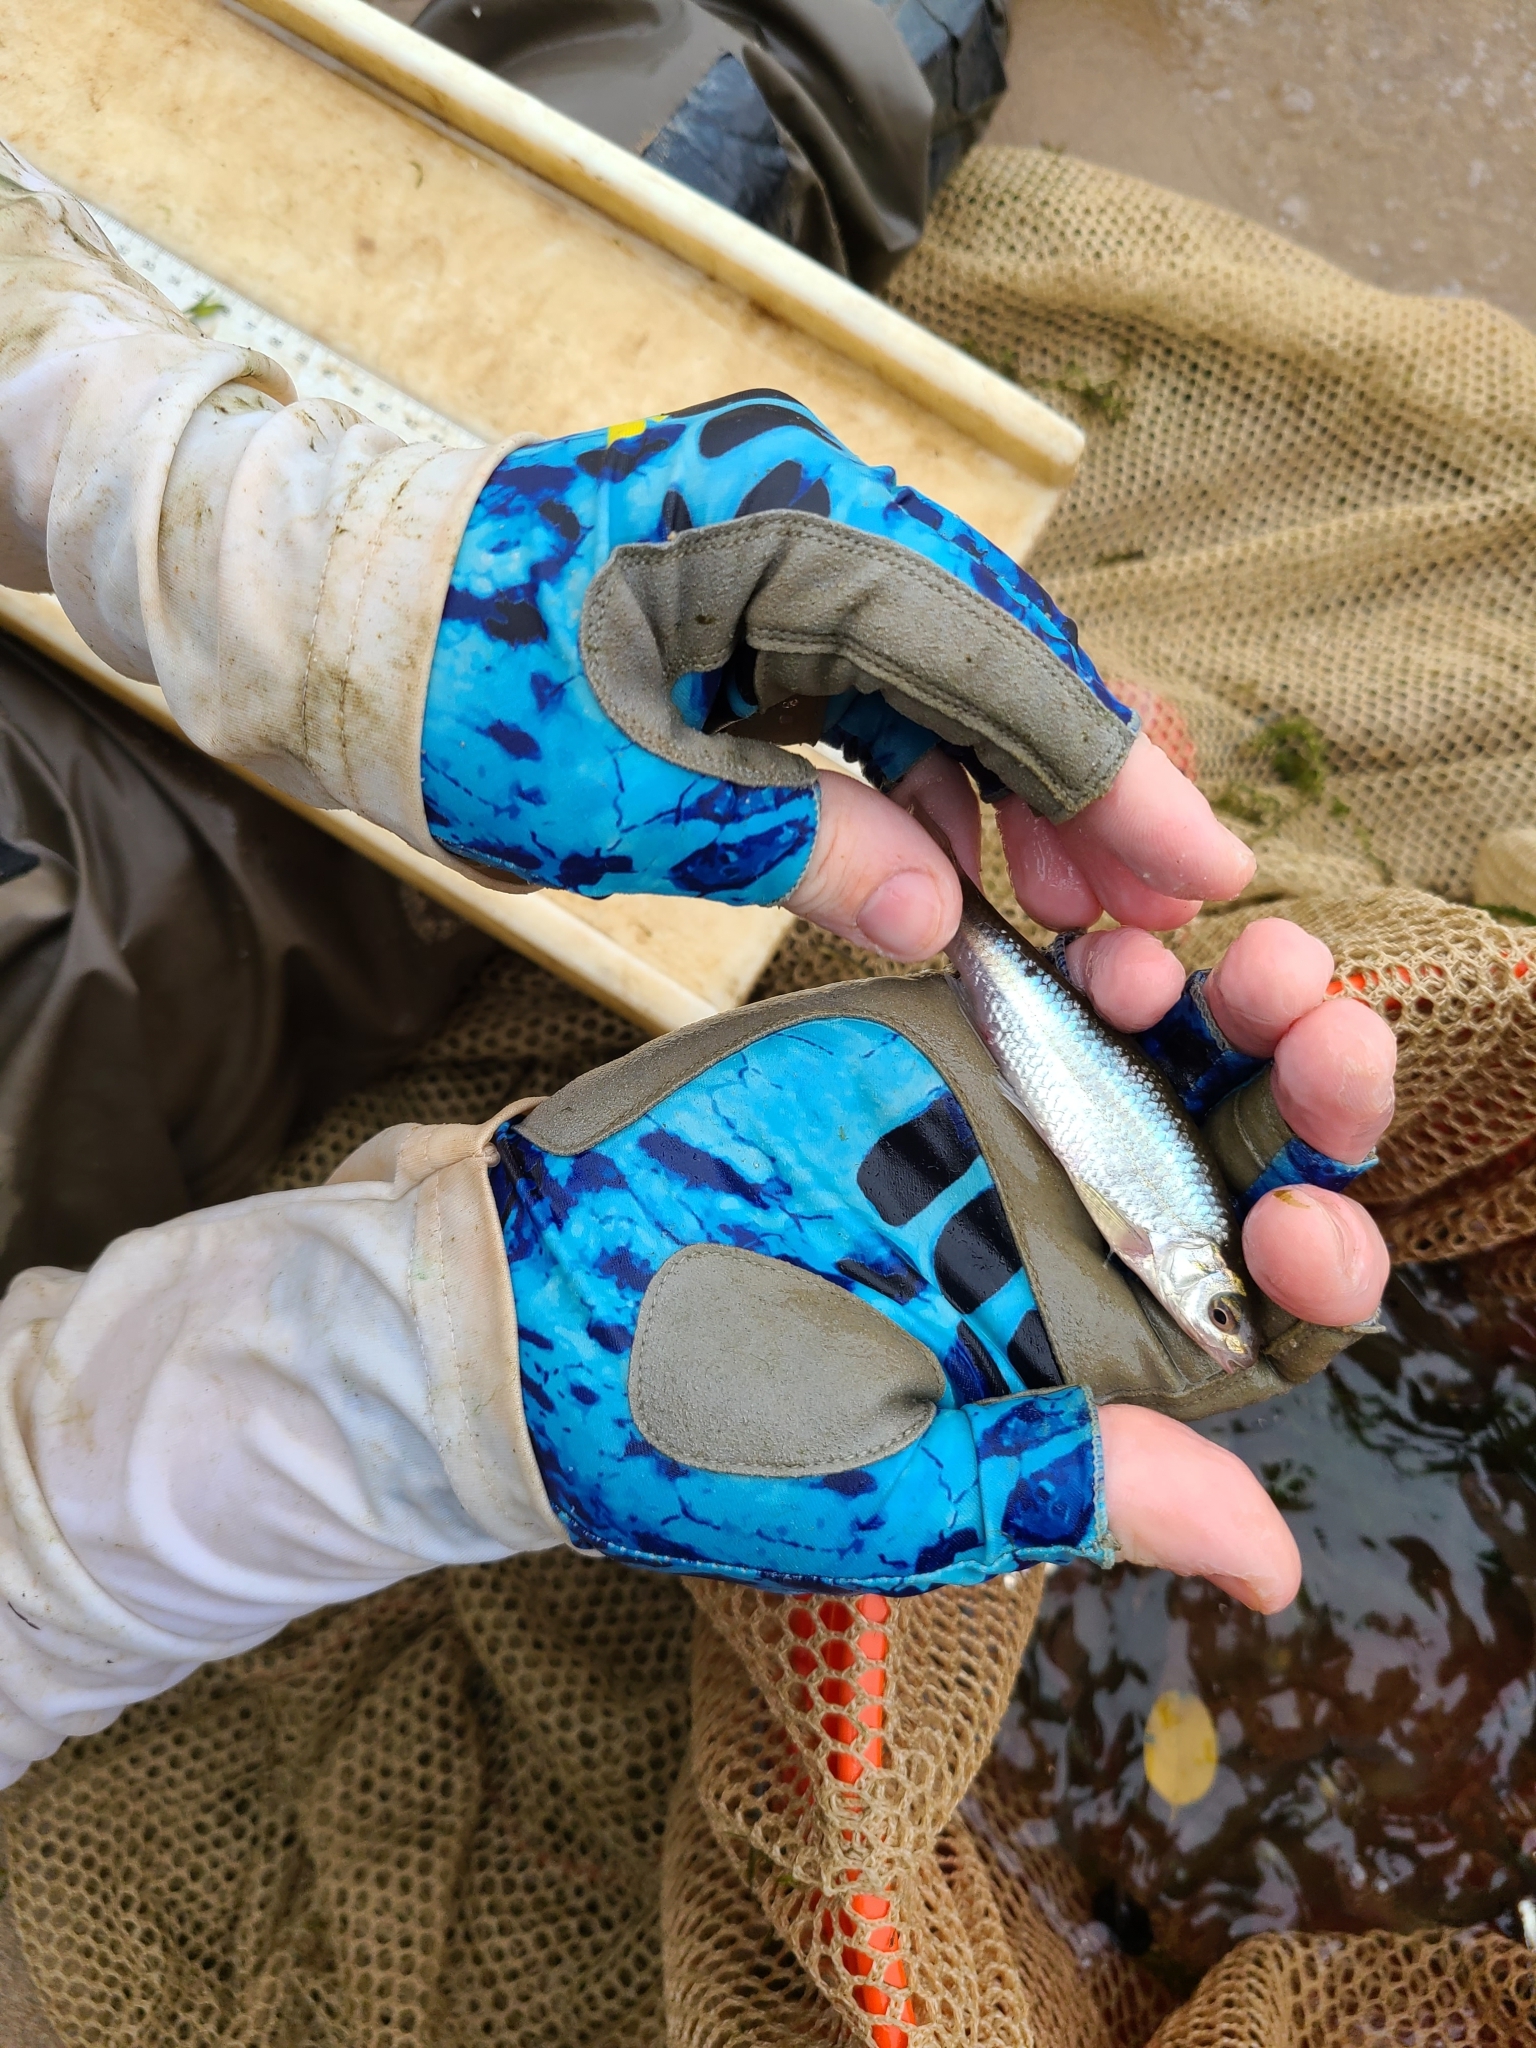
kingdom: Animalia
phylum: Chordata
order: Cypriniformes
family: Cyprinidae
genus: Notropis
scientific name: Notropis
